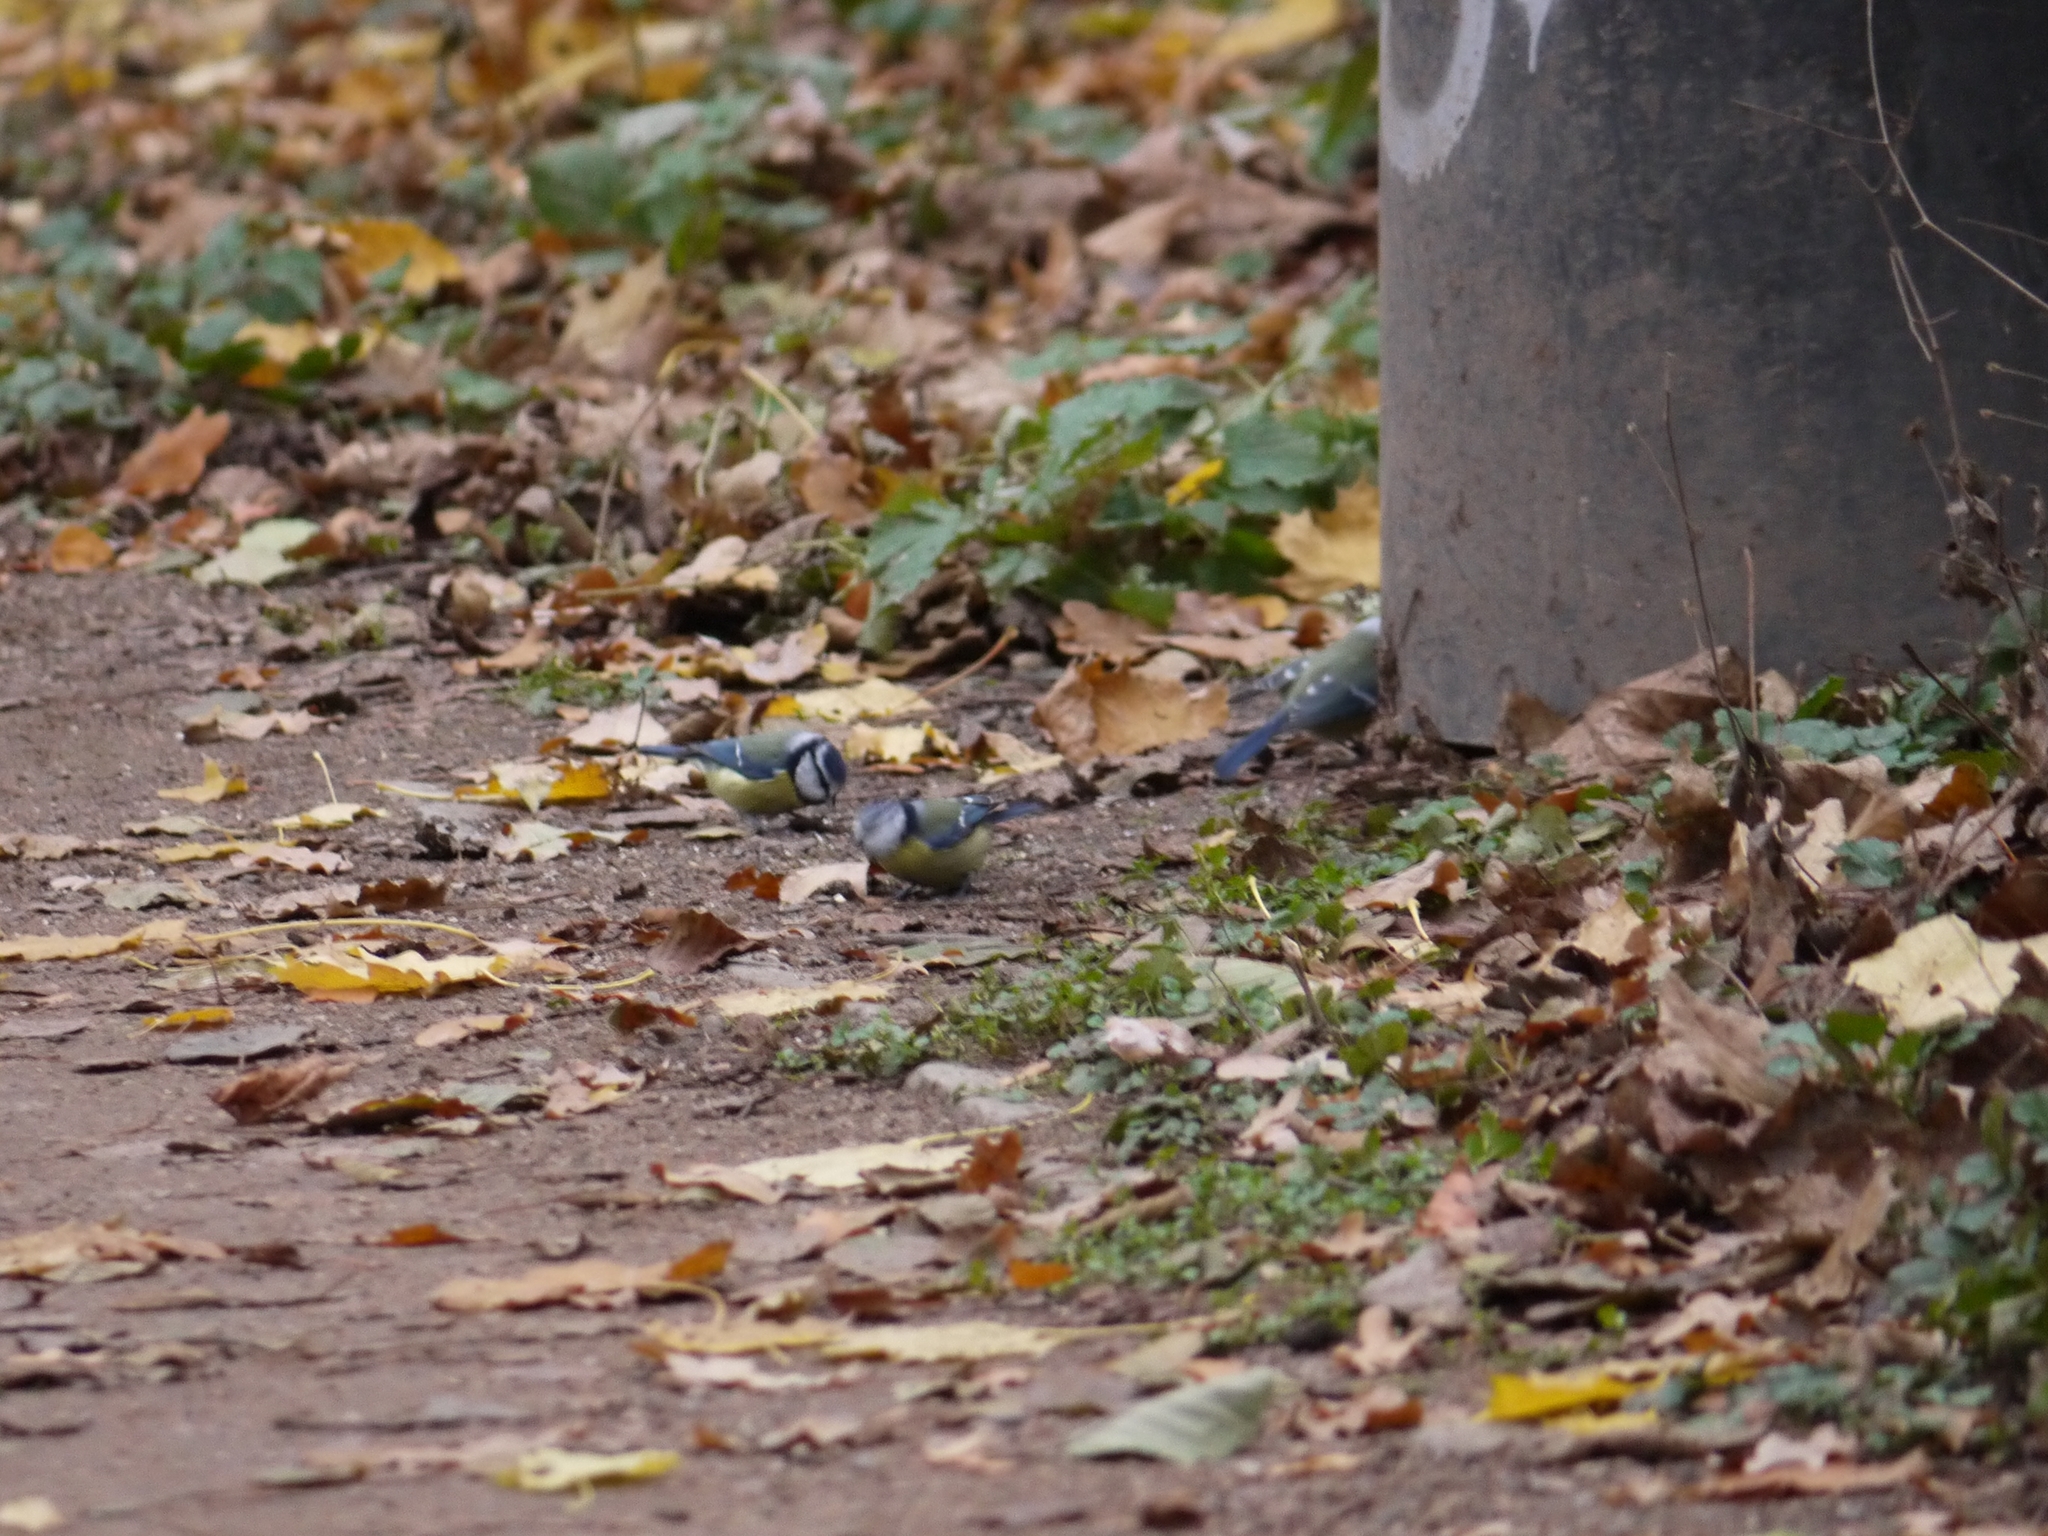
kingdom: Animalia
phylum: Chordata
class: Aves
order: Passeriformes
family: Paridae
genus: Cyanistes
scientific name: Cyanistes caeruleus
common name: Eurasian blue tit
